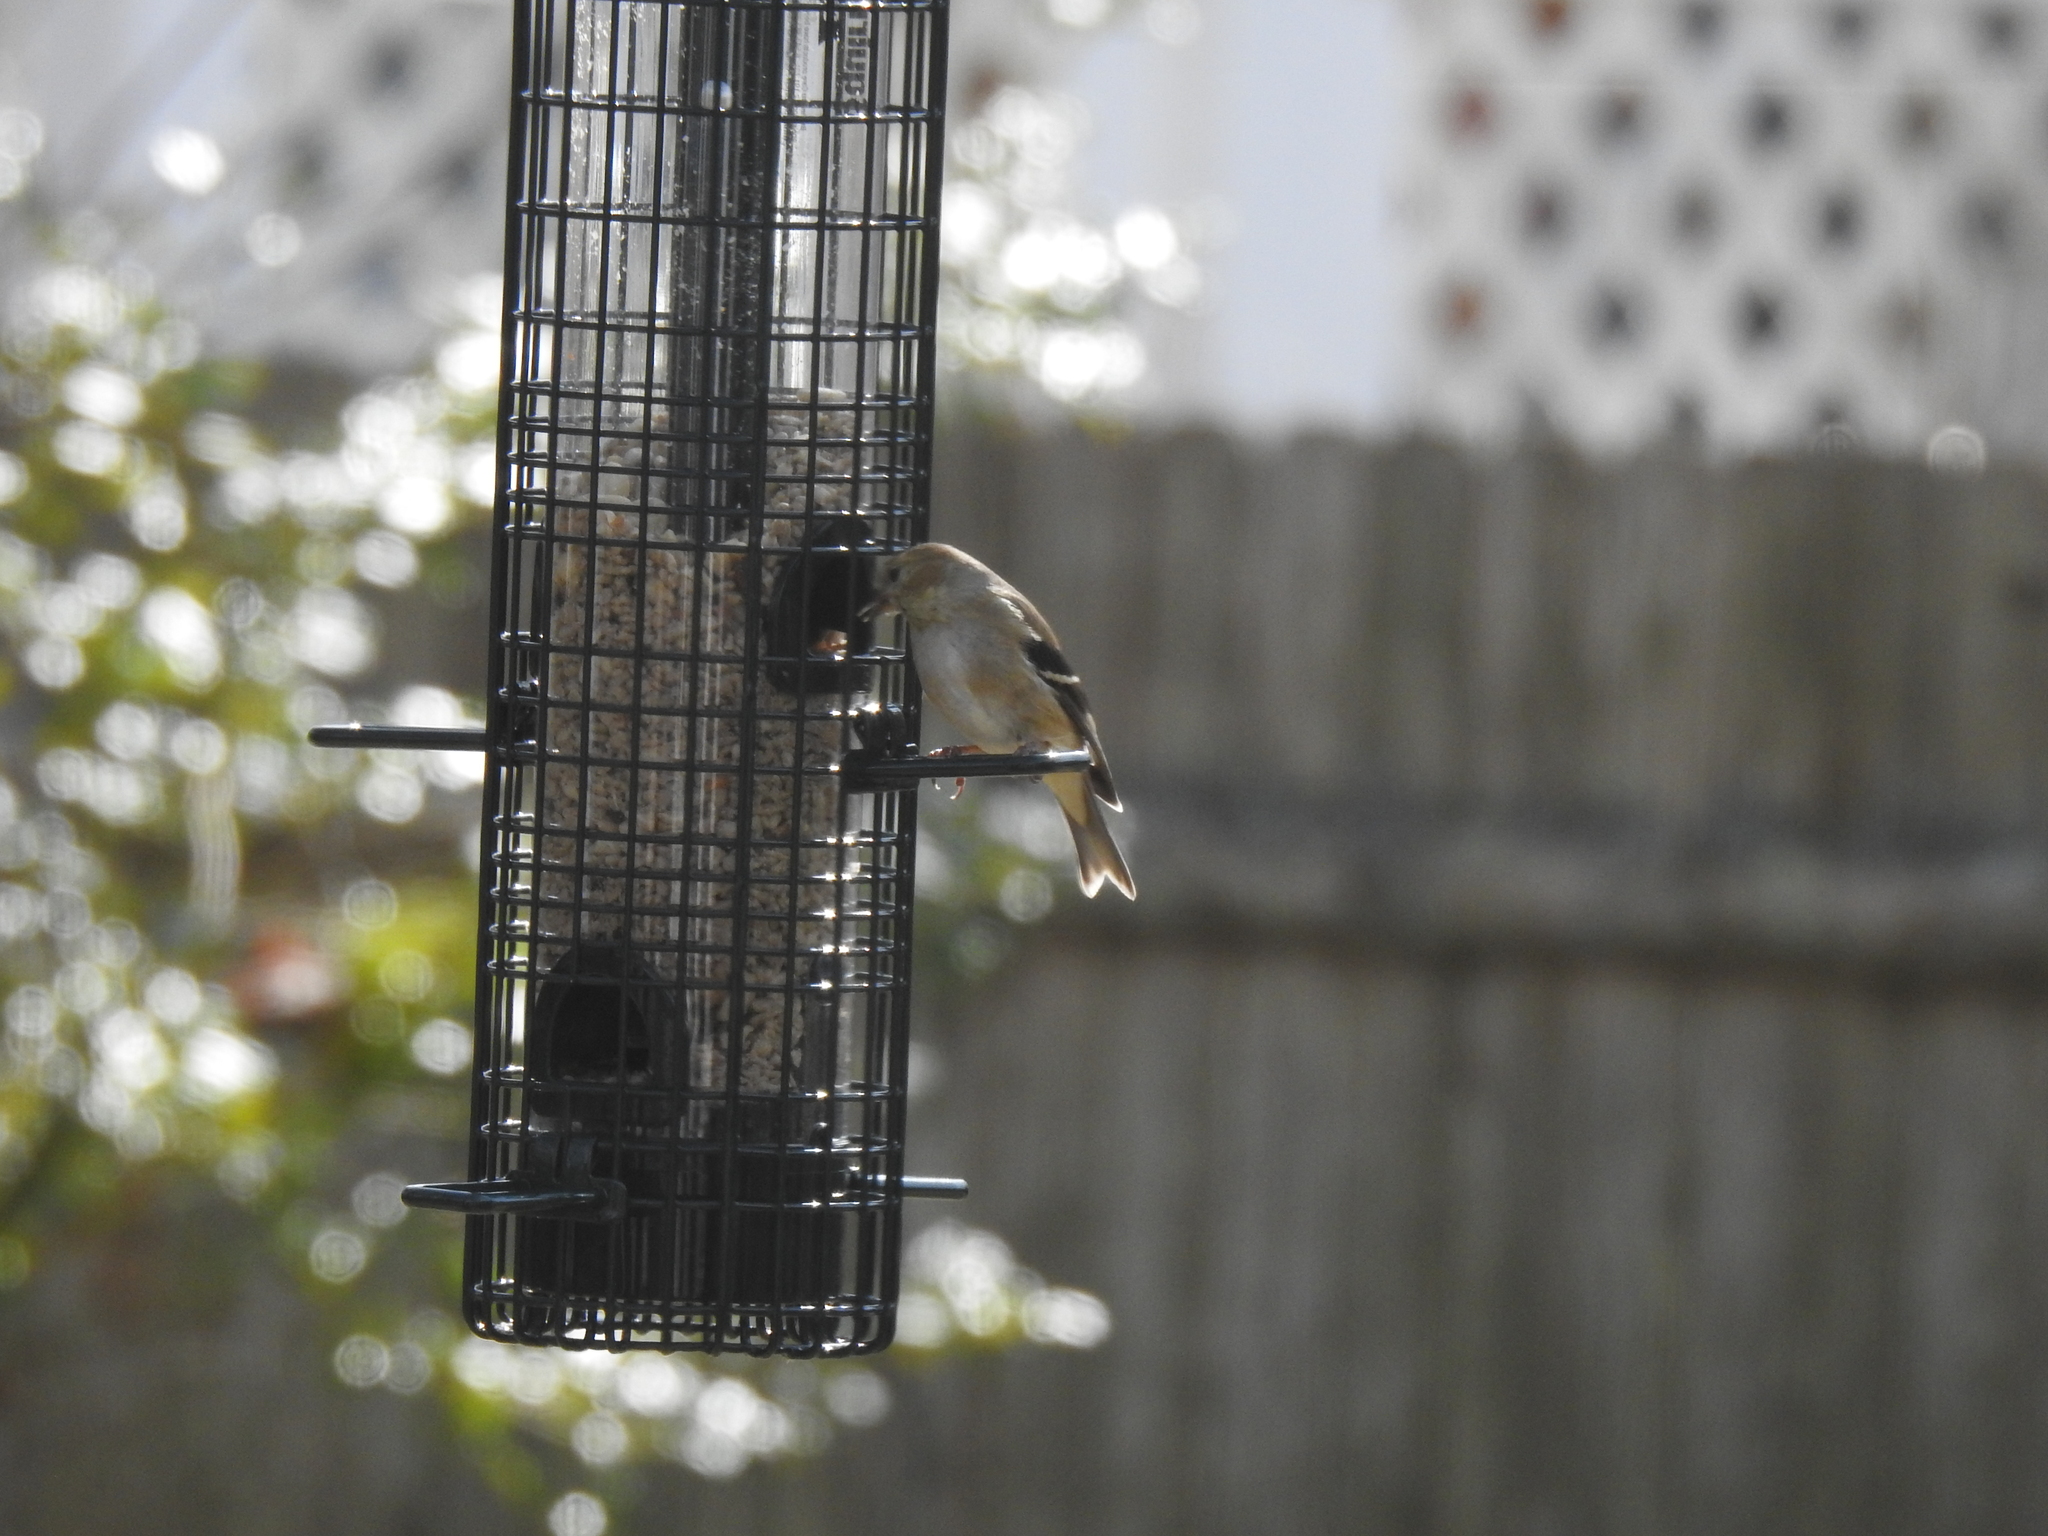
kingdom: Animalia
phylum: Chordata
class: Aves
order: Passeriformes
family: Fringillidae
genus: Spinus
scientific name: Spinus tristis
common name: American goldfinch
